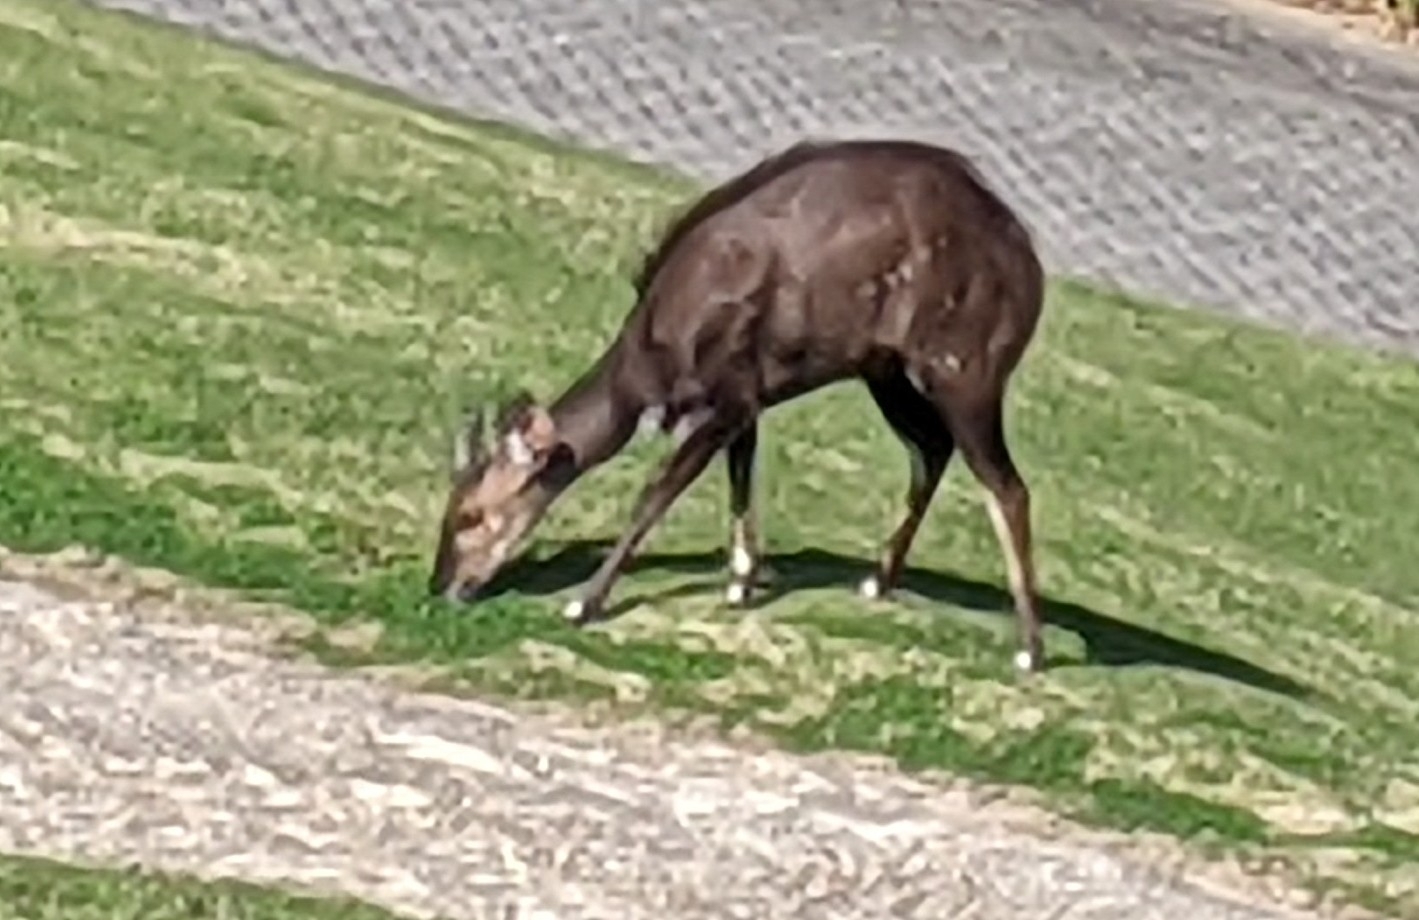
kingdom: Animalia
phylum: Chordata
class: Mammalia
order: Artiodactyla
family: Bovidae
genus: Tragelaphus
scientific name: Tragelaphus scriptus
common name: Bushbuck
